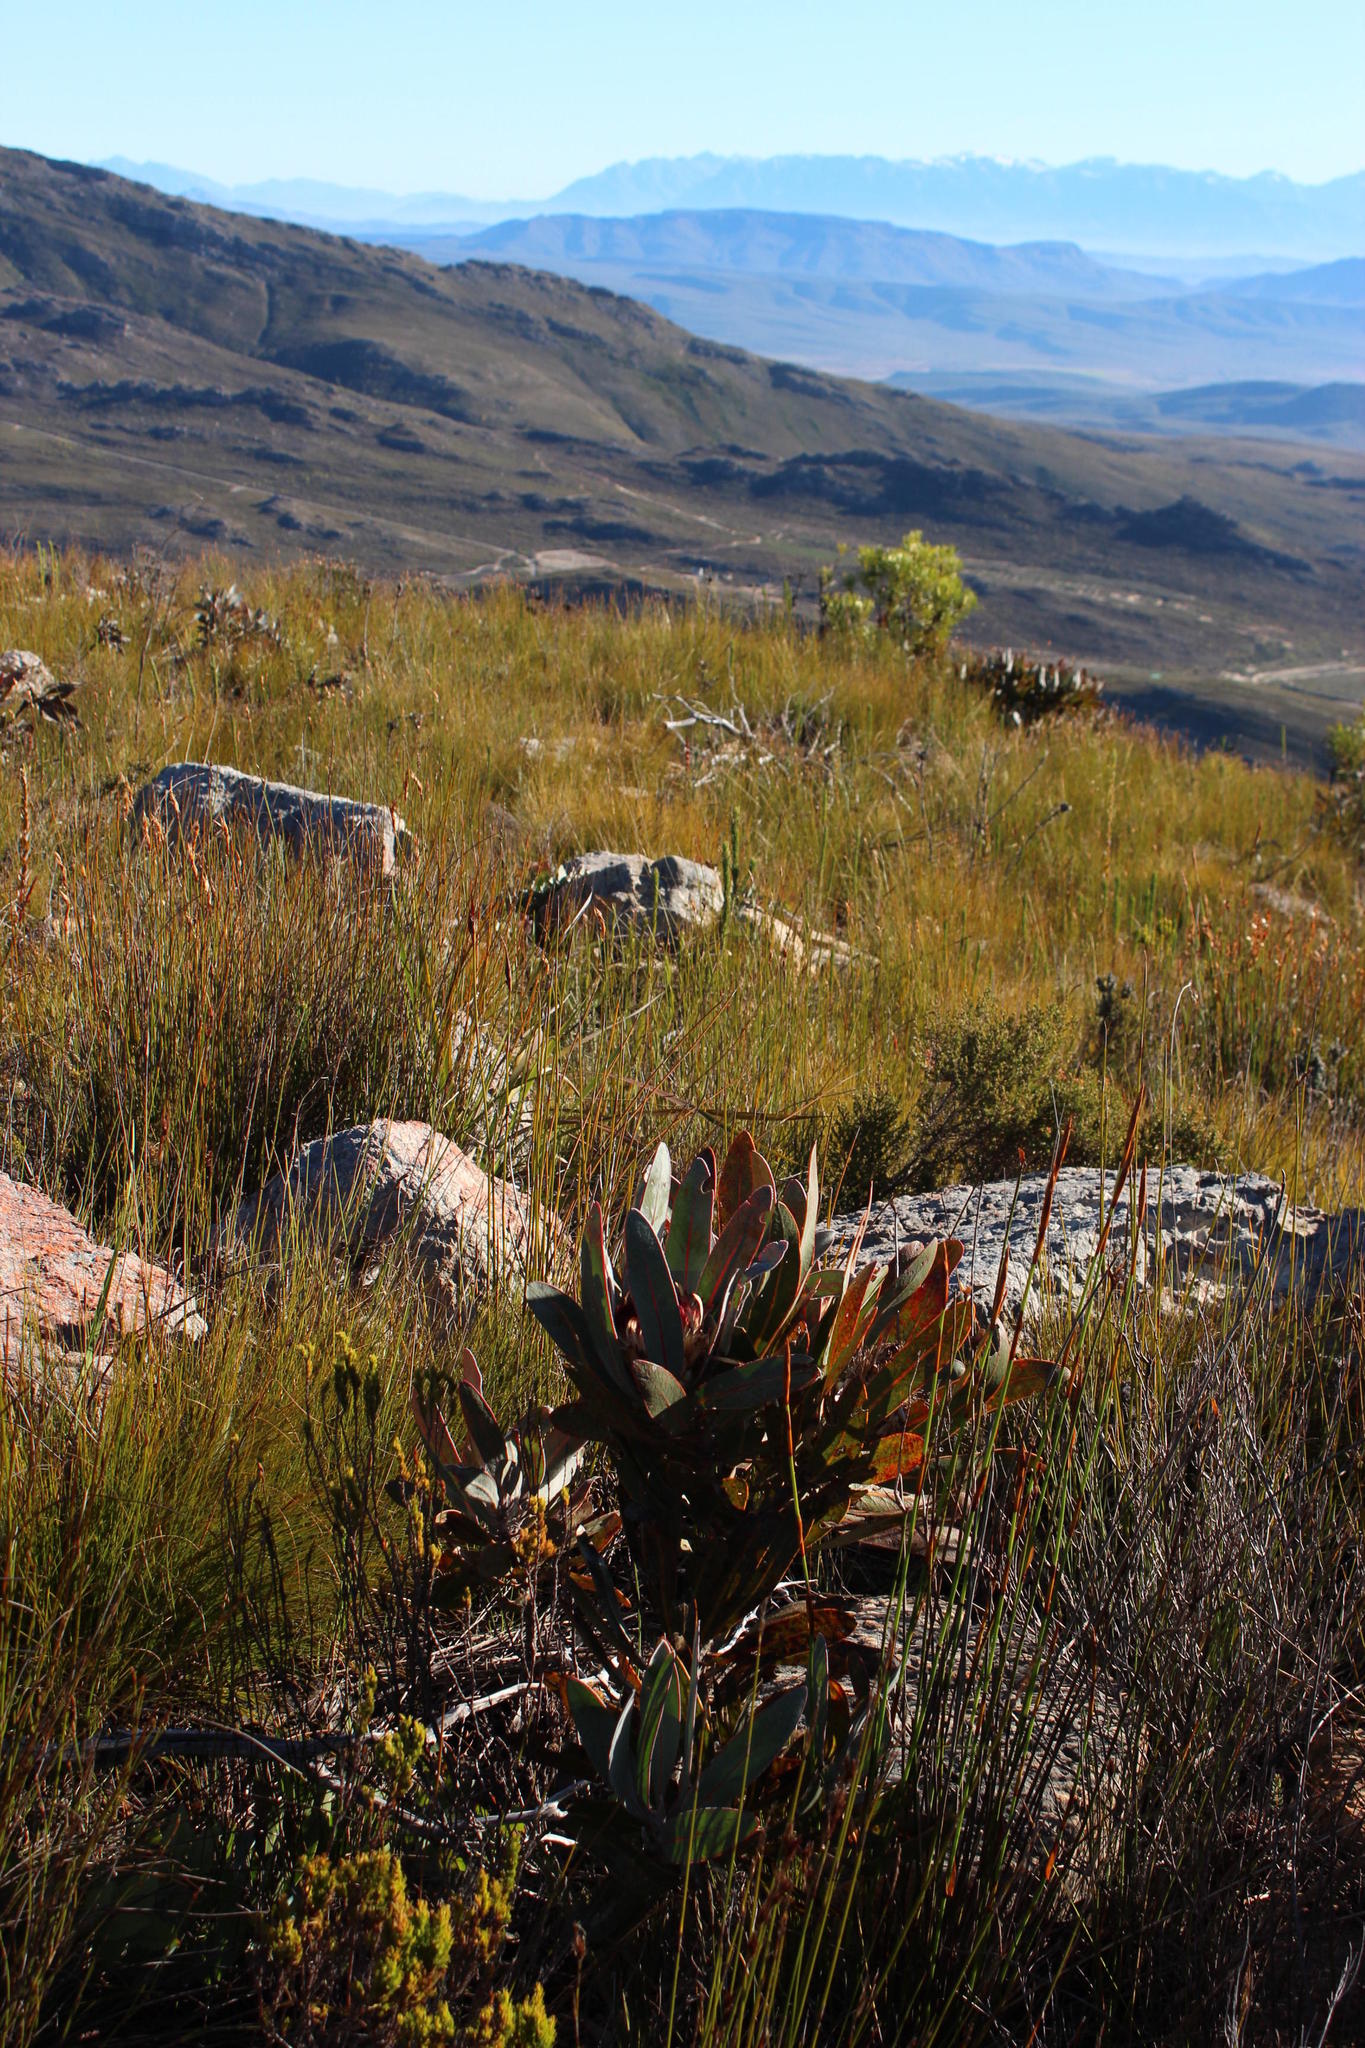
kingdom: Plantae
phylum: Tracheophyta
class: Magnoliopsida
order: Proteales
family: Proteaceae
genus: Protea
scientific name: Protea lorifolia
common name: Strap-leaved protea
